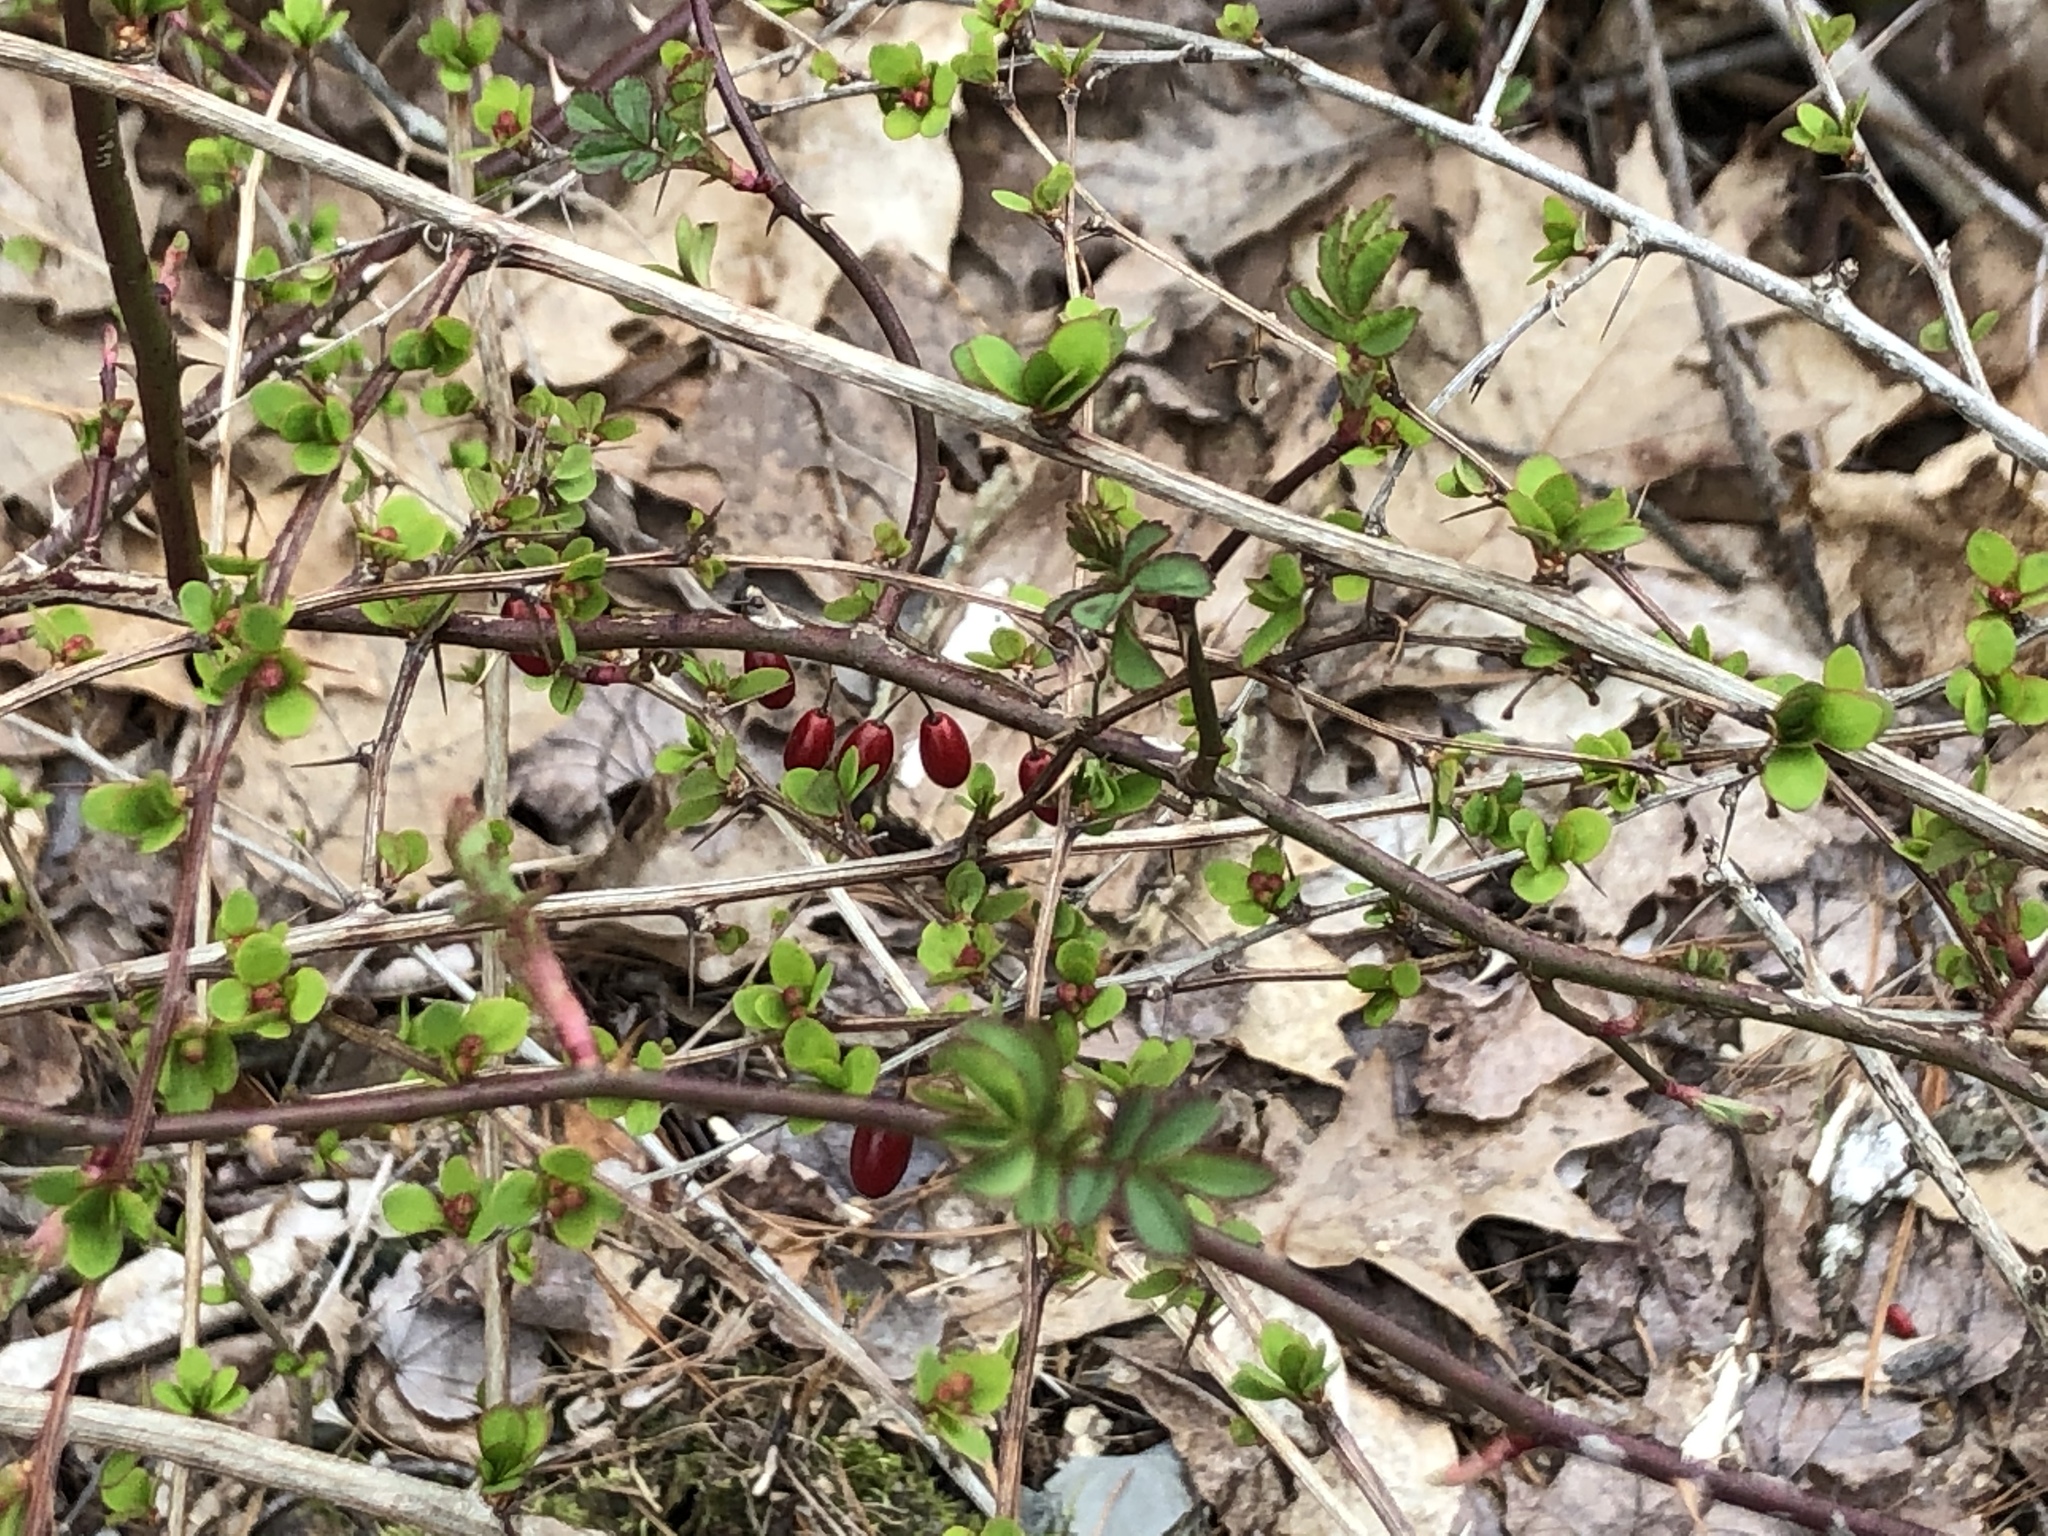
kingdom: Plantae
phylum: Tracheophyta
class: Magnoliopsida
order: Ranunculales
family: Berberidaceae
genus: Berberis
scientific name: Berberis thunbergii
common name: Japanese barberry
